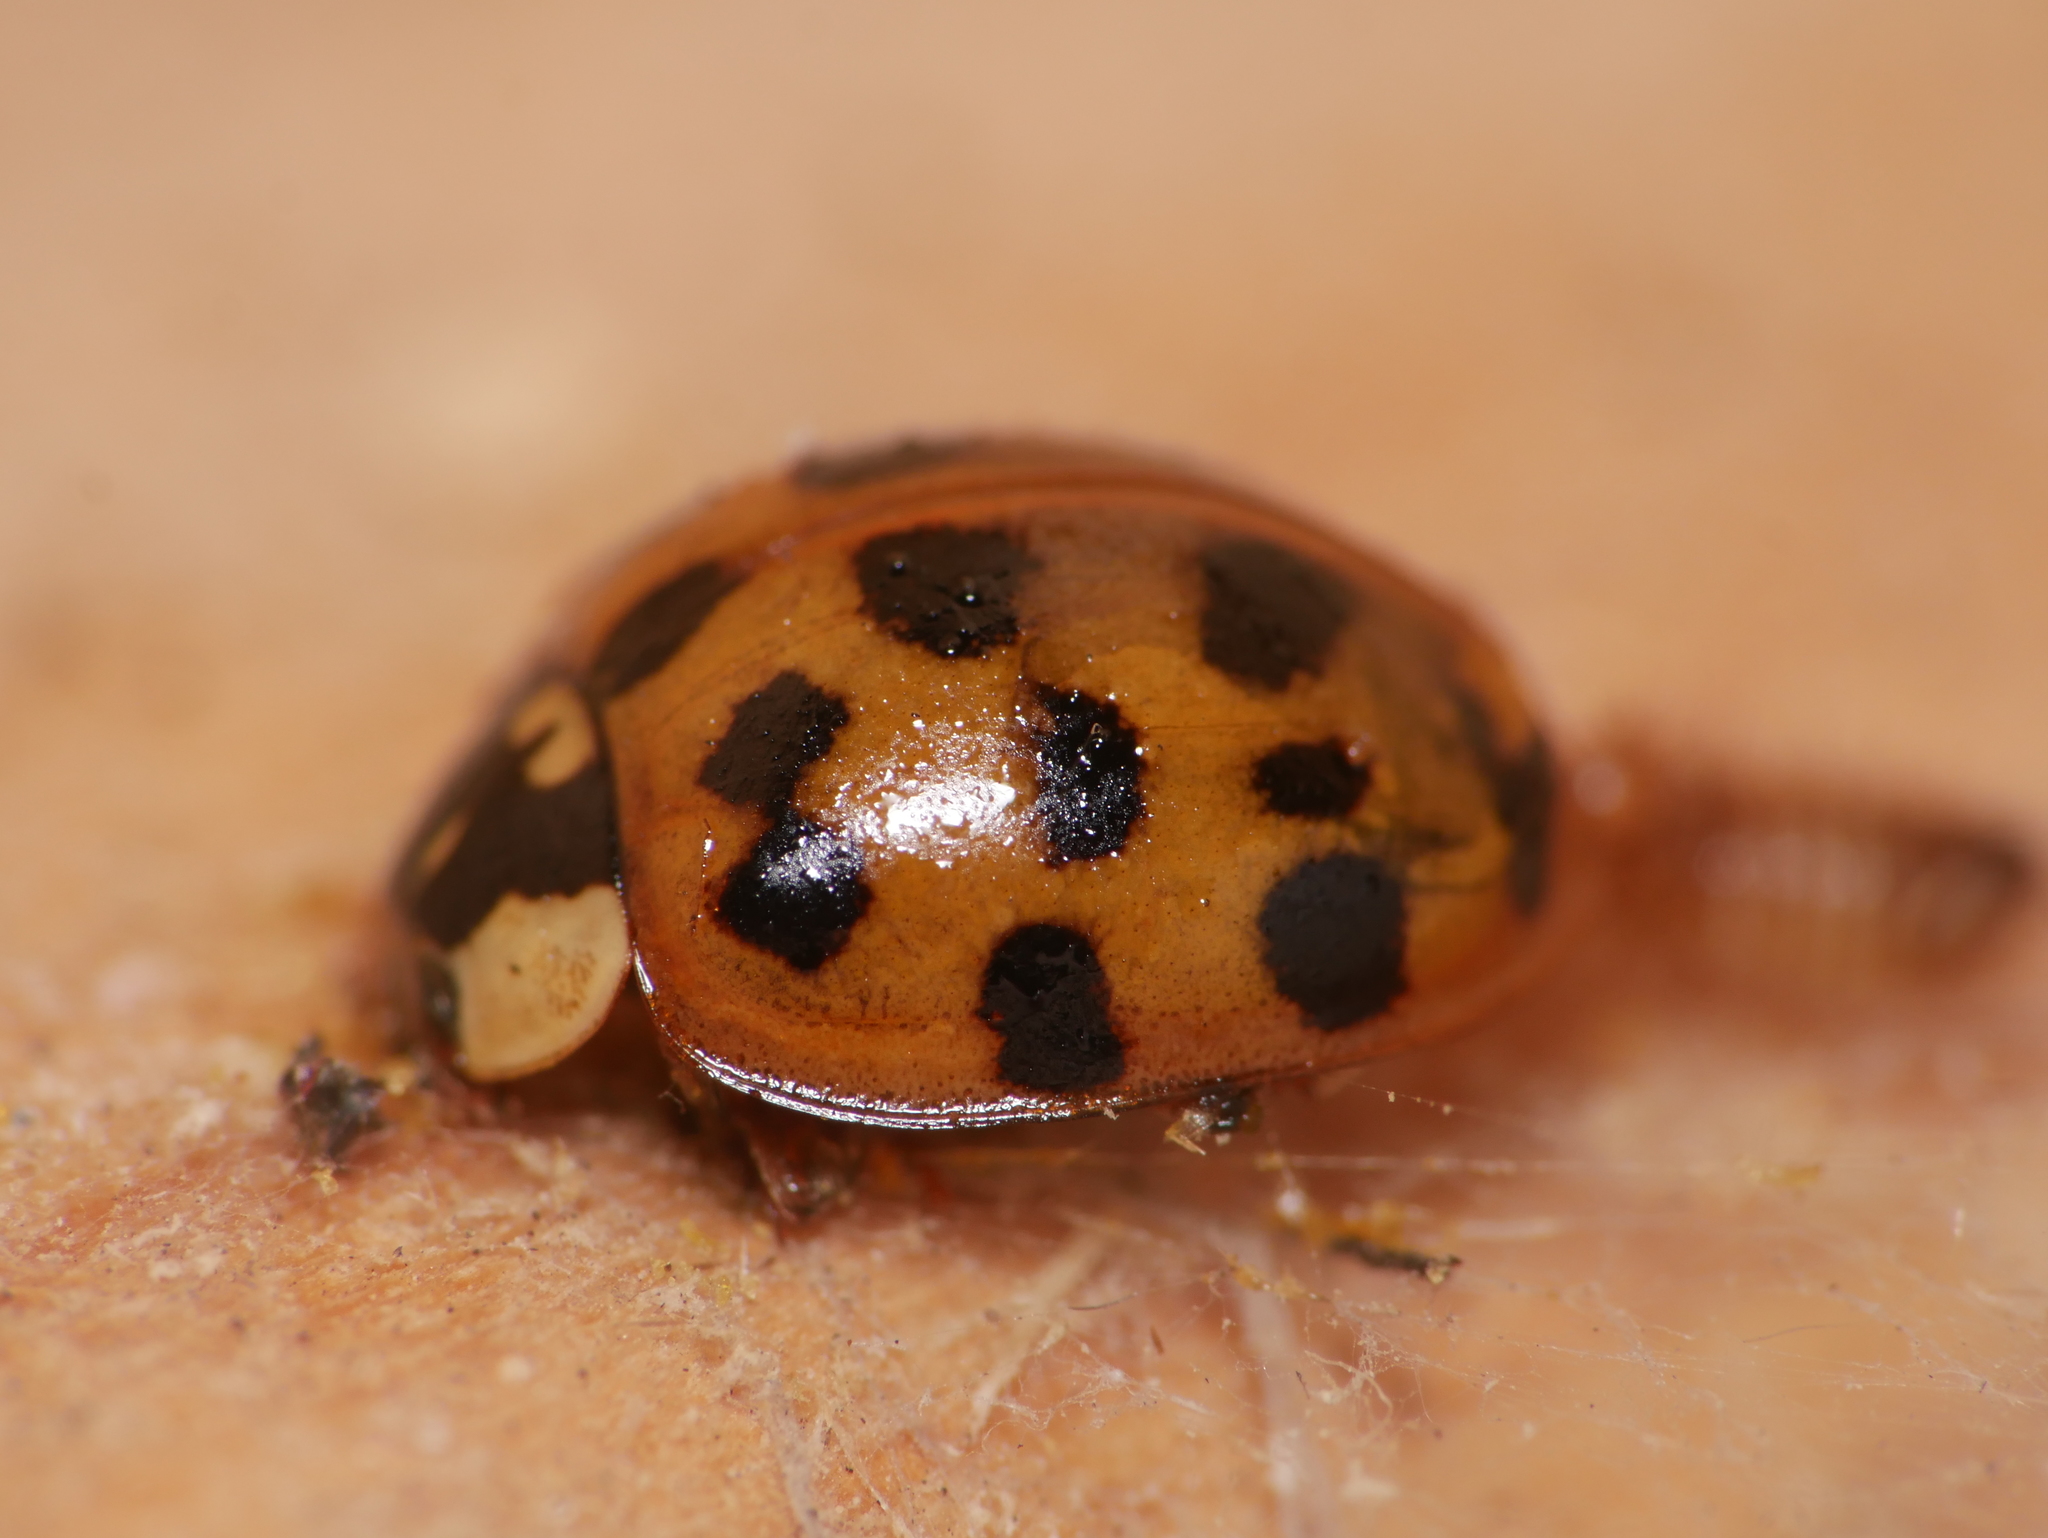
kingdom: Animalia
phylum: Arthropoda
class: Insecta
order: Coleoptera
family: Coccinellidae
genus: Harmonia
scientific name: Harmonia axyridis
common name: Harlequin ladybird
